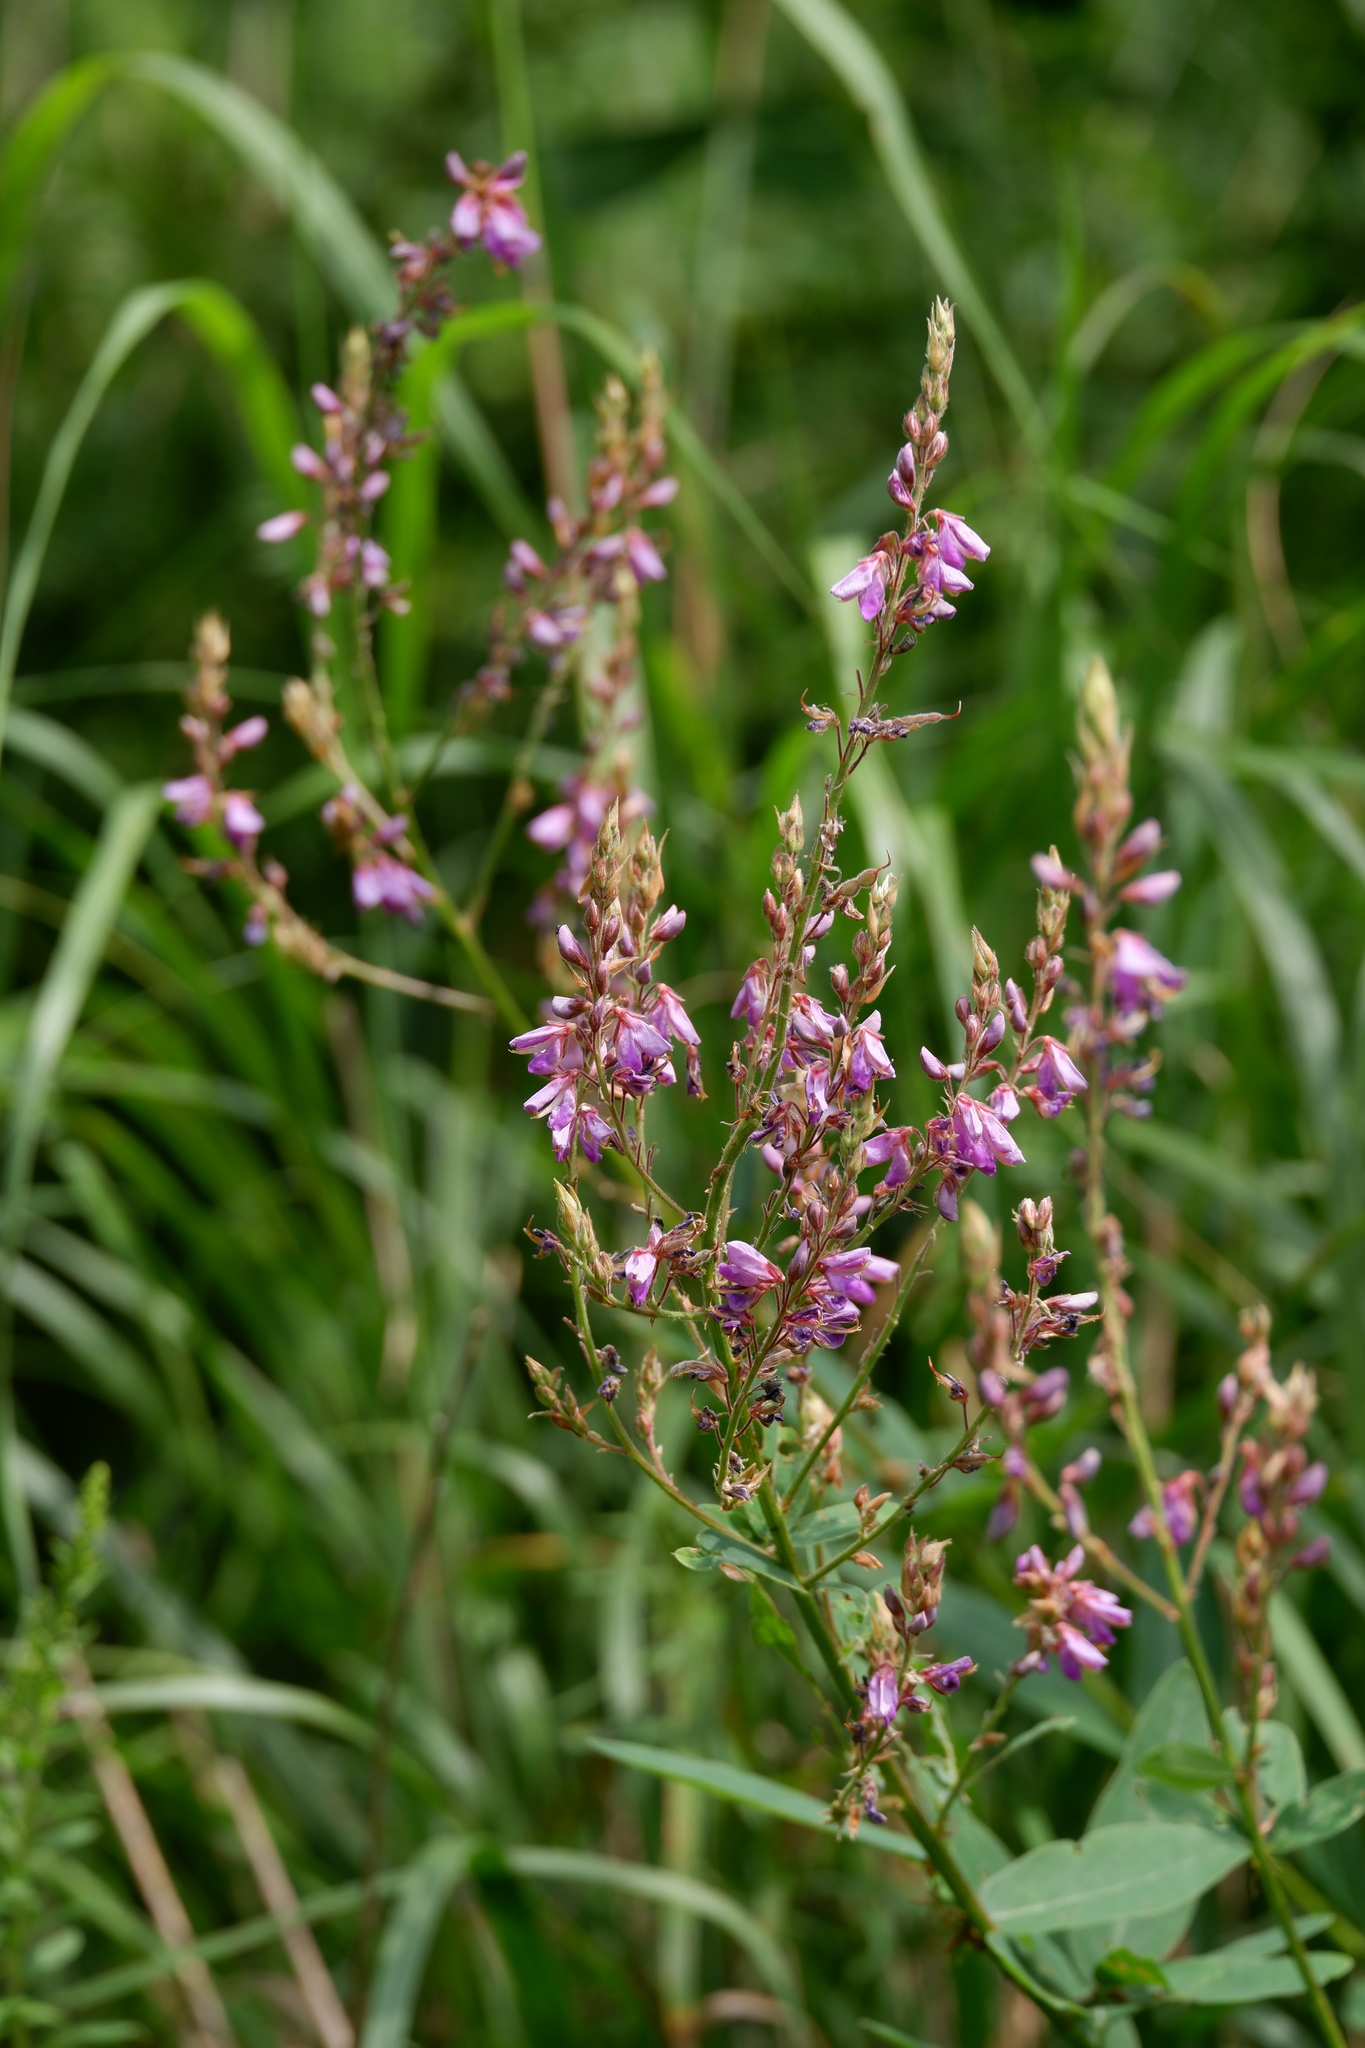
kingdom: Plantae
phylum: Tracheophyta
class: Magnoliopsida
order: Fabales
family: Fabaceae
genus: Desmodium
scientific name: Desmodium canadense
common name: Canada tick-trefoil
